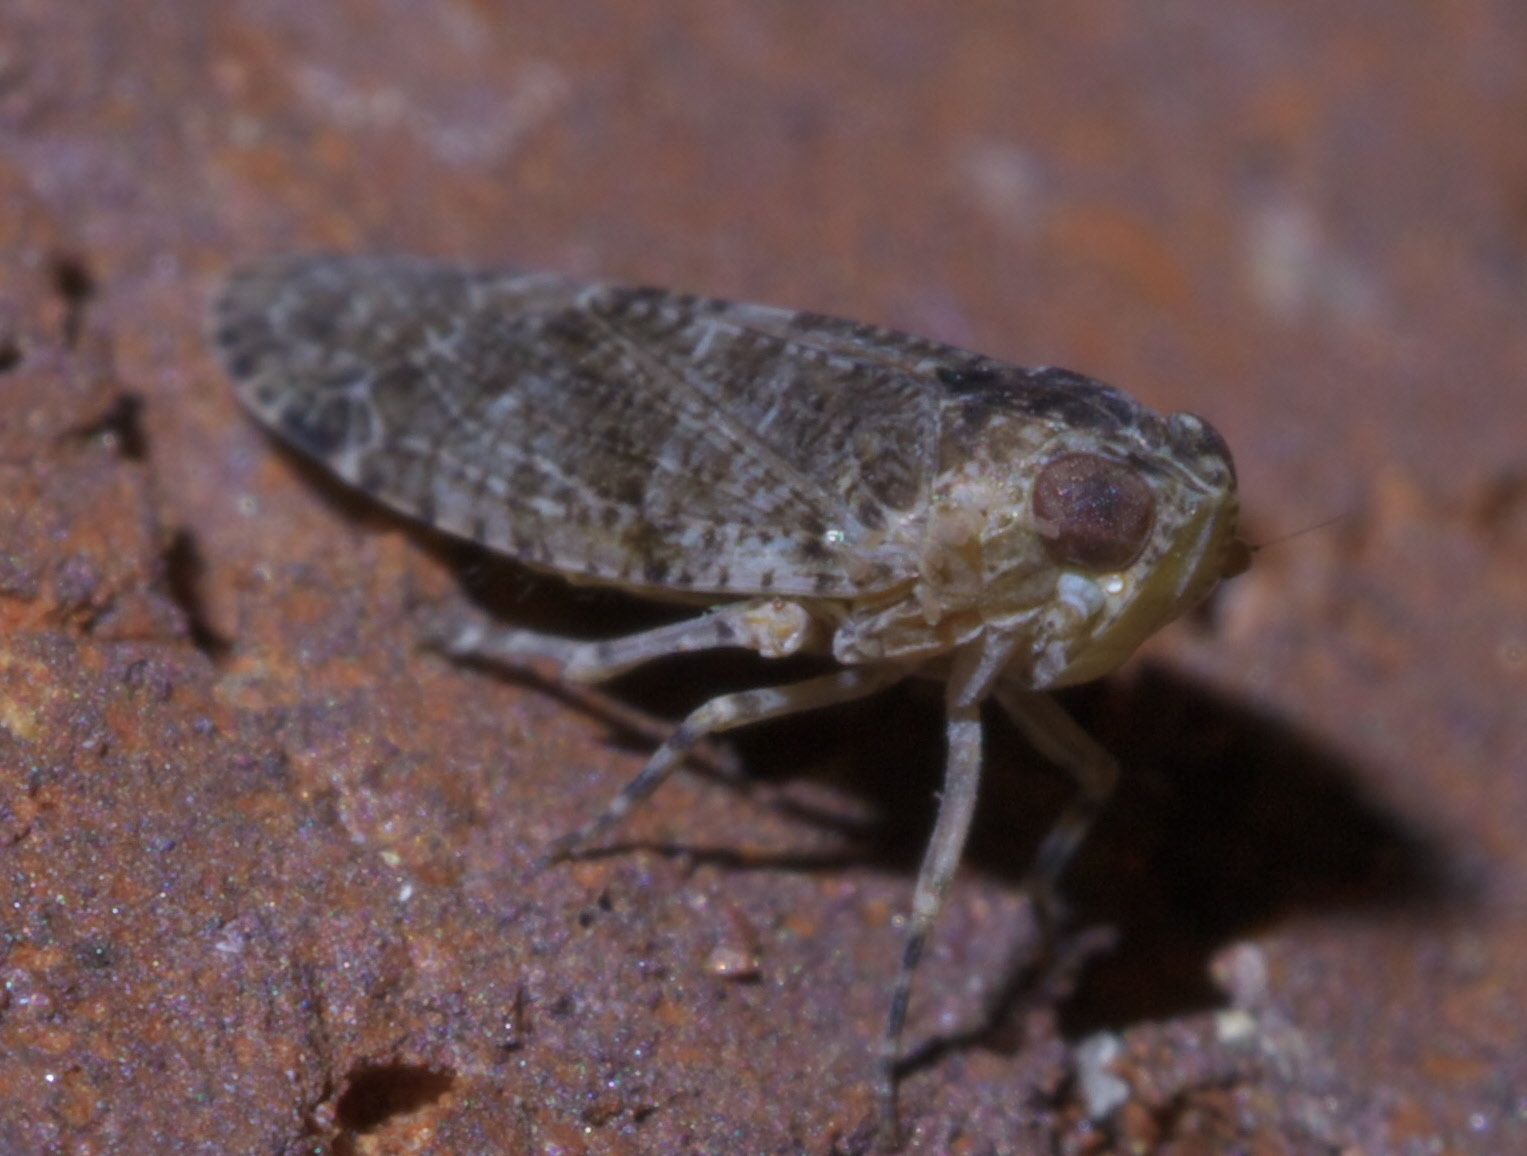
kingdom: Animalia
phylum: Arthropoda
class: Insecta
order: Hemiptera
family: Achilidae
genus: Catonia
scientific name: Catonia pumila
